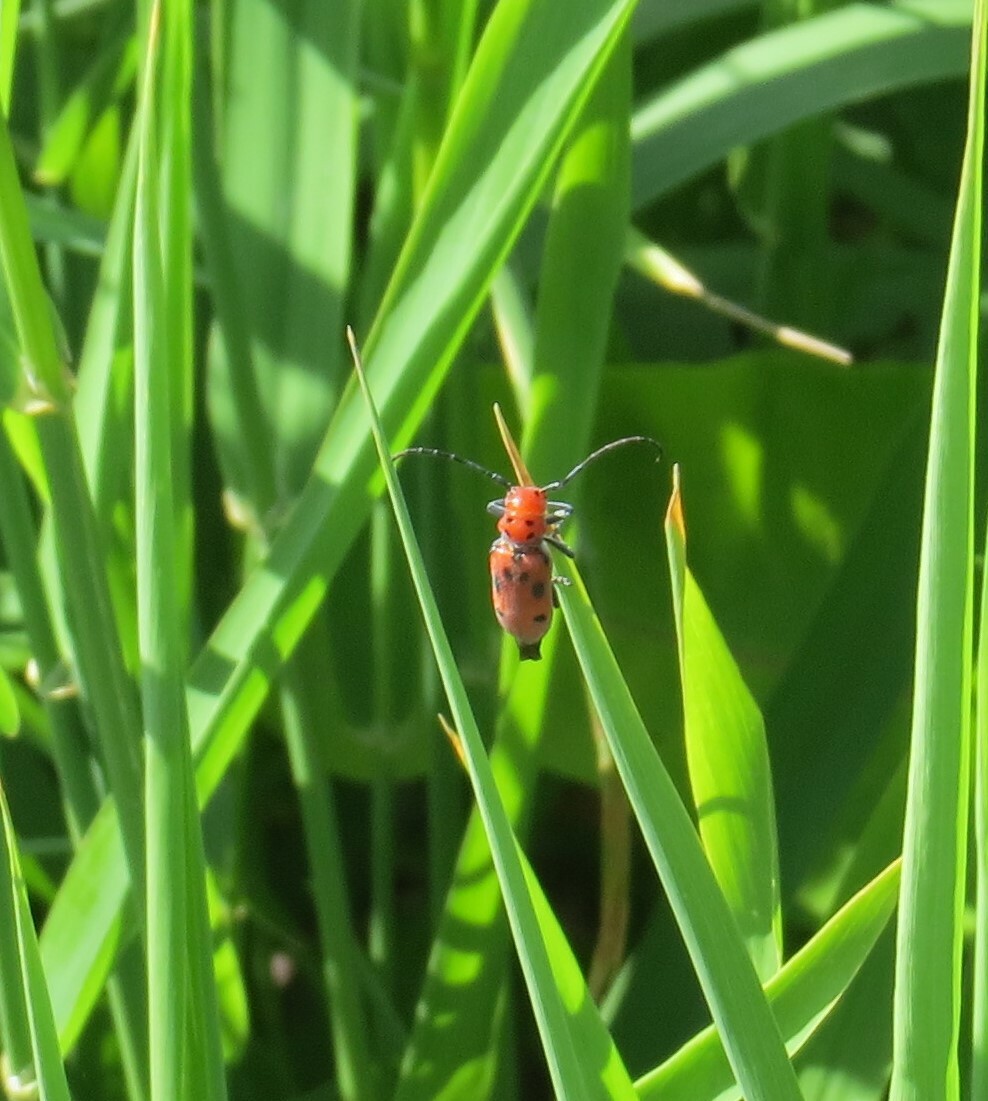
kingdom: Animalia
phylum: Arthropoda
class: Insecta
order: Coleoptera
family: Cerambycidae
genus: Tetraopes
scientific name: Tetraopes tetrophthalmus
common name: Red milkweed beetle
